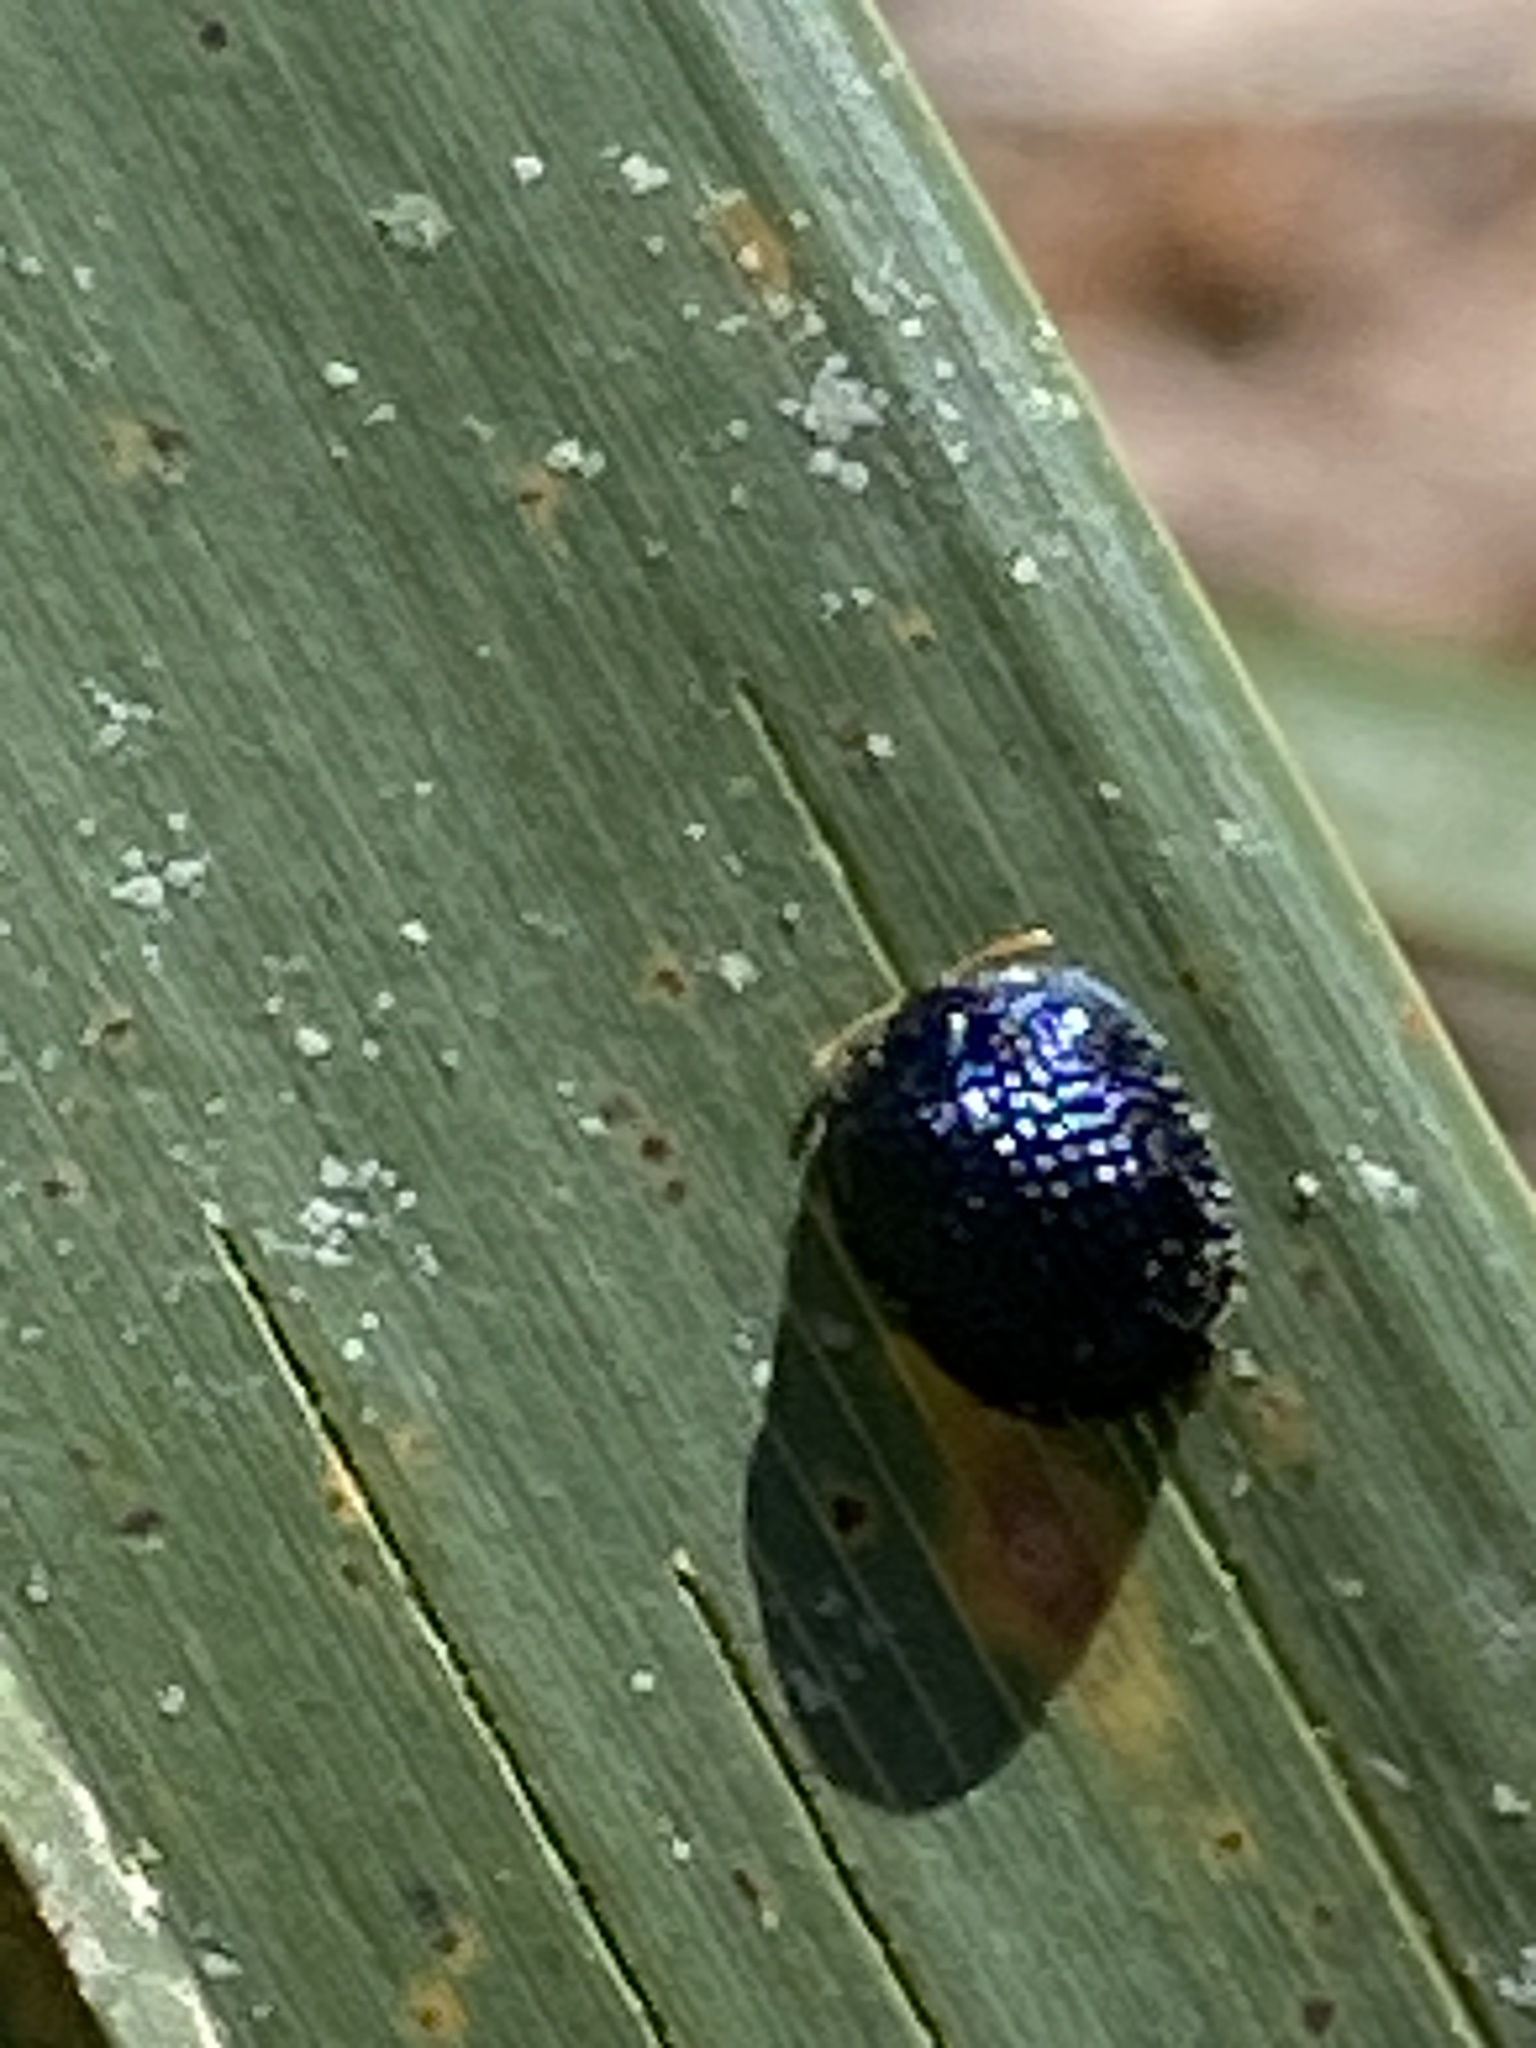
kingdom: Animalia
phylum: Arthropoda
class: Insecta
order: Coleoptera
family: Chrysomelidae
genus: Hemisphaerota
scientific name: Hemisphaerota cyanea
